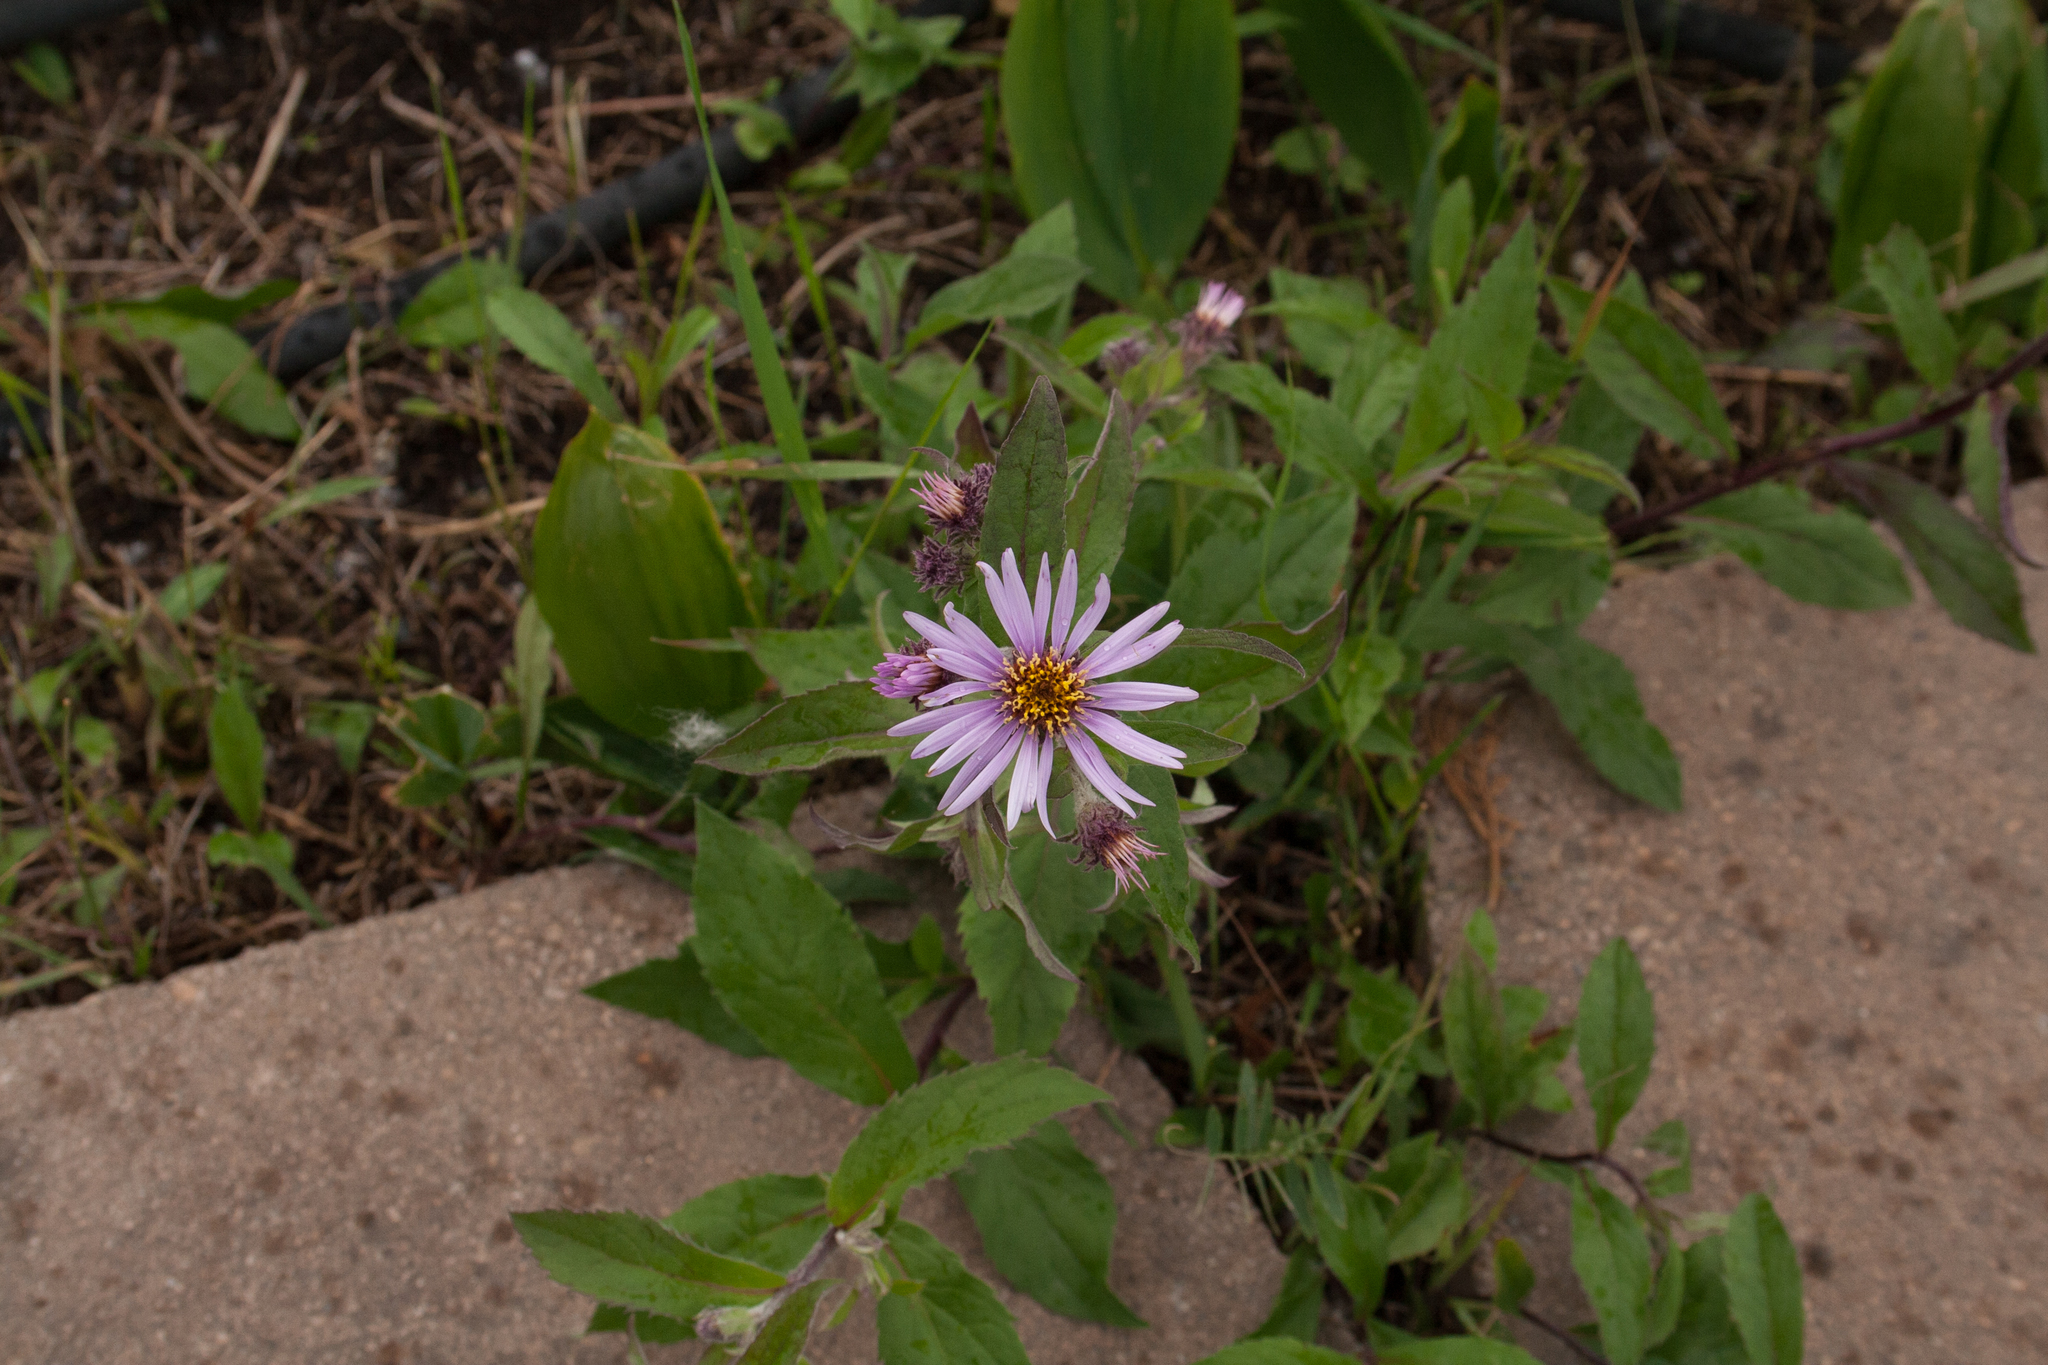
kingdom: Plantae
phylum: Tracheophyta
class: Magnoliopsida
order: Asterales
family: Asteraceae
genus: Eurybia
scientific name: Eurybia sibirica
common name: Arctic aster
